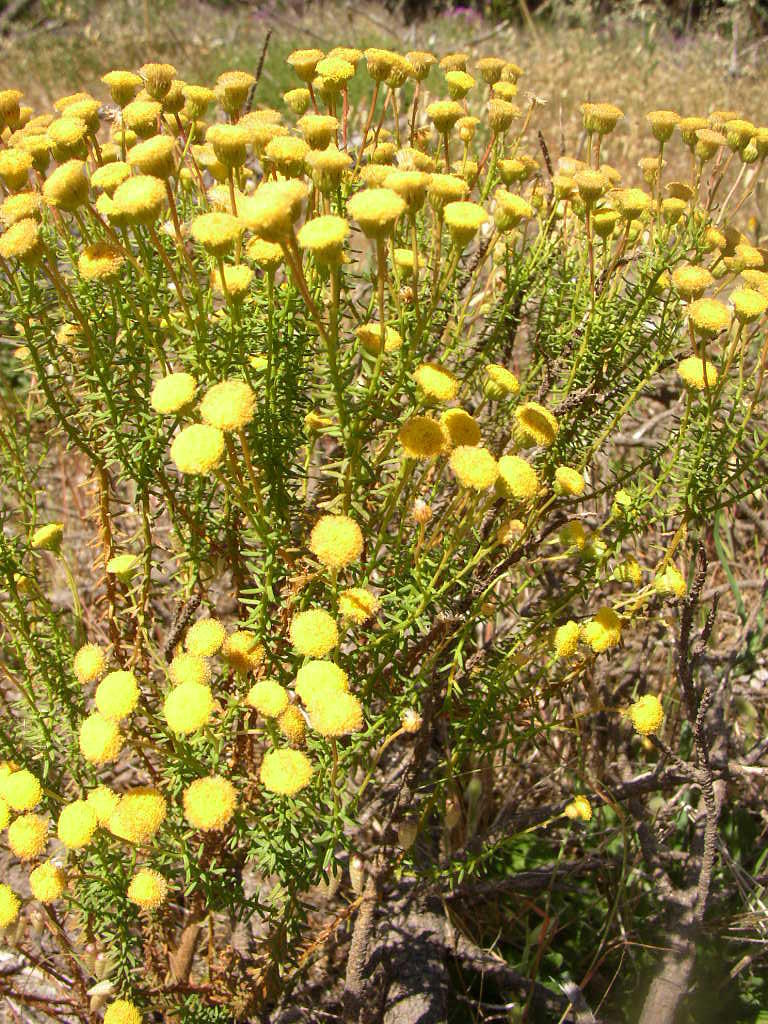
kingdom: Plantae
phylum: Tracheophyta
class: Magnoliopsida
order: Asterales
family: Asteraceae
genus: Chrysocoma
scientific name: Chrysocoma cernua
